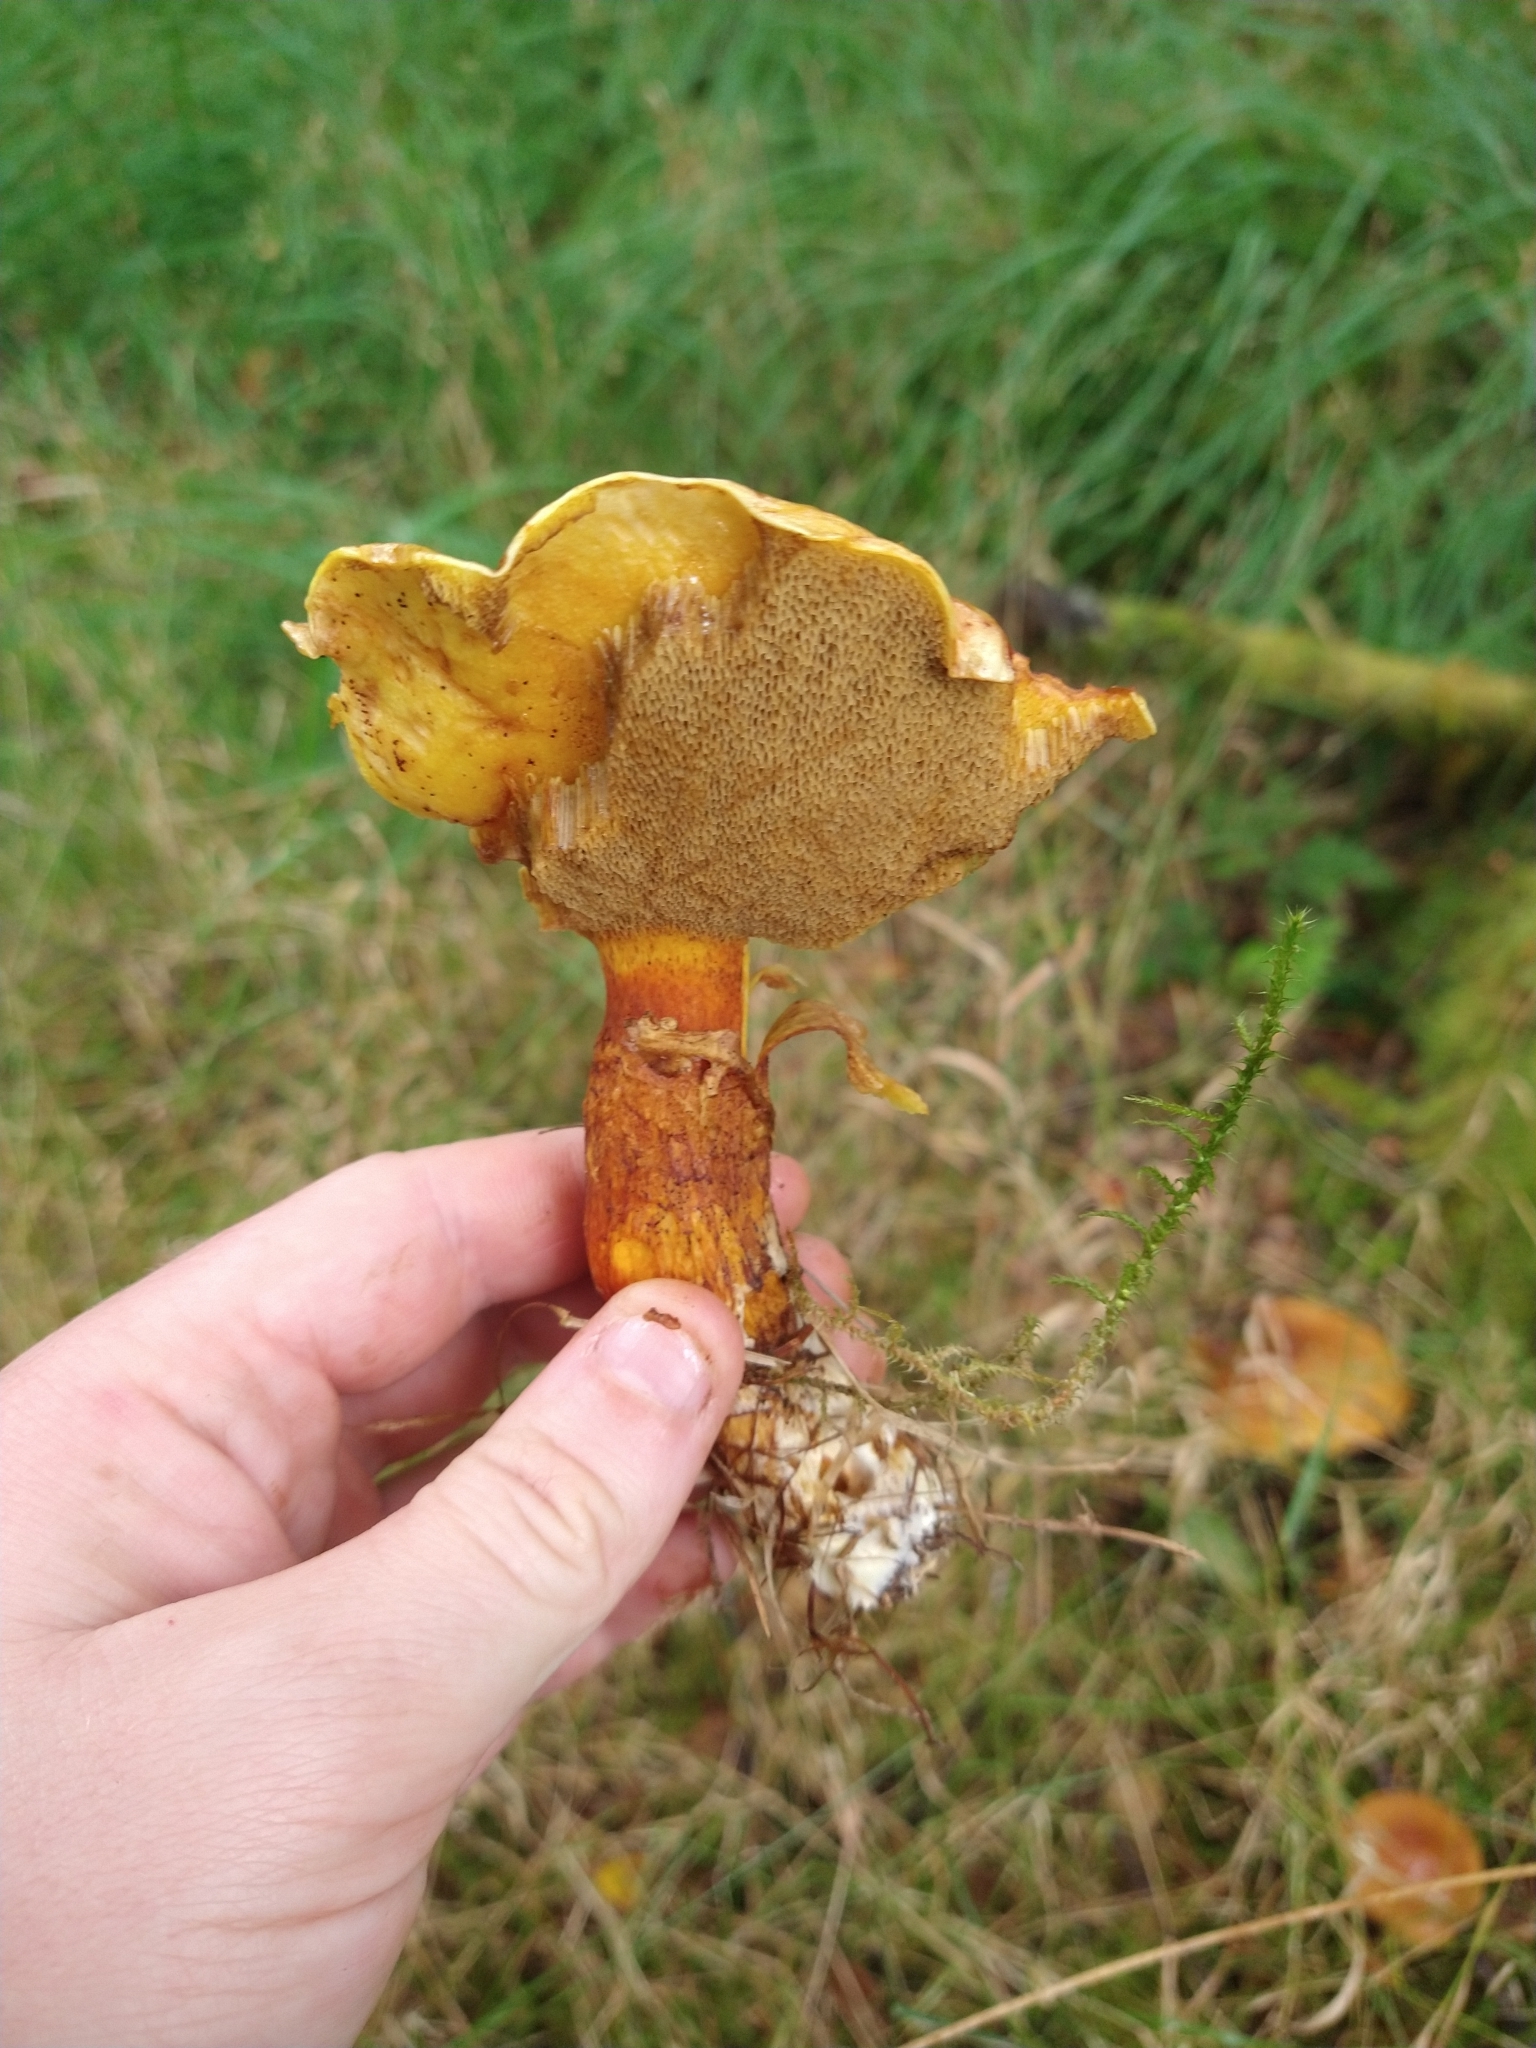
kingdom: Fungi
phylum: Basidiomycota
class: Agaricomycetes
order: Boletales
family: Suillaceae
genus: Suillus
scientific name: Suillus grevillei
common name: Larch bolete
